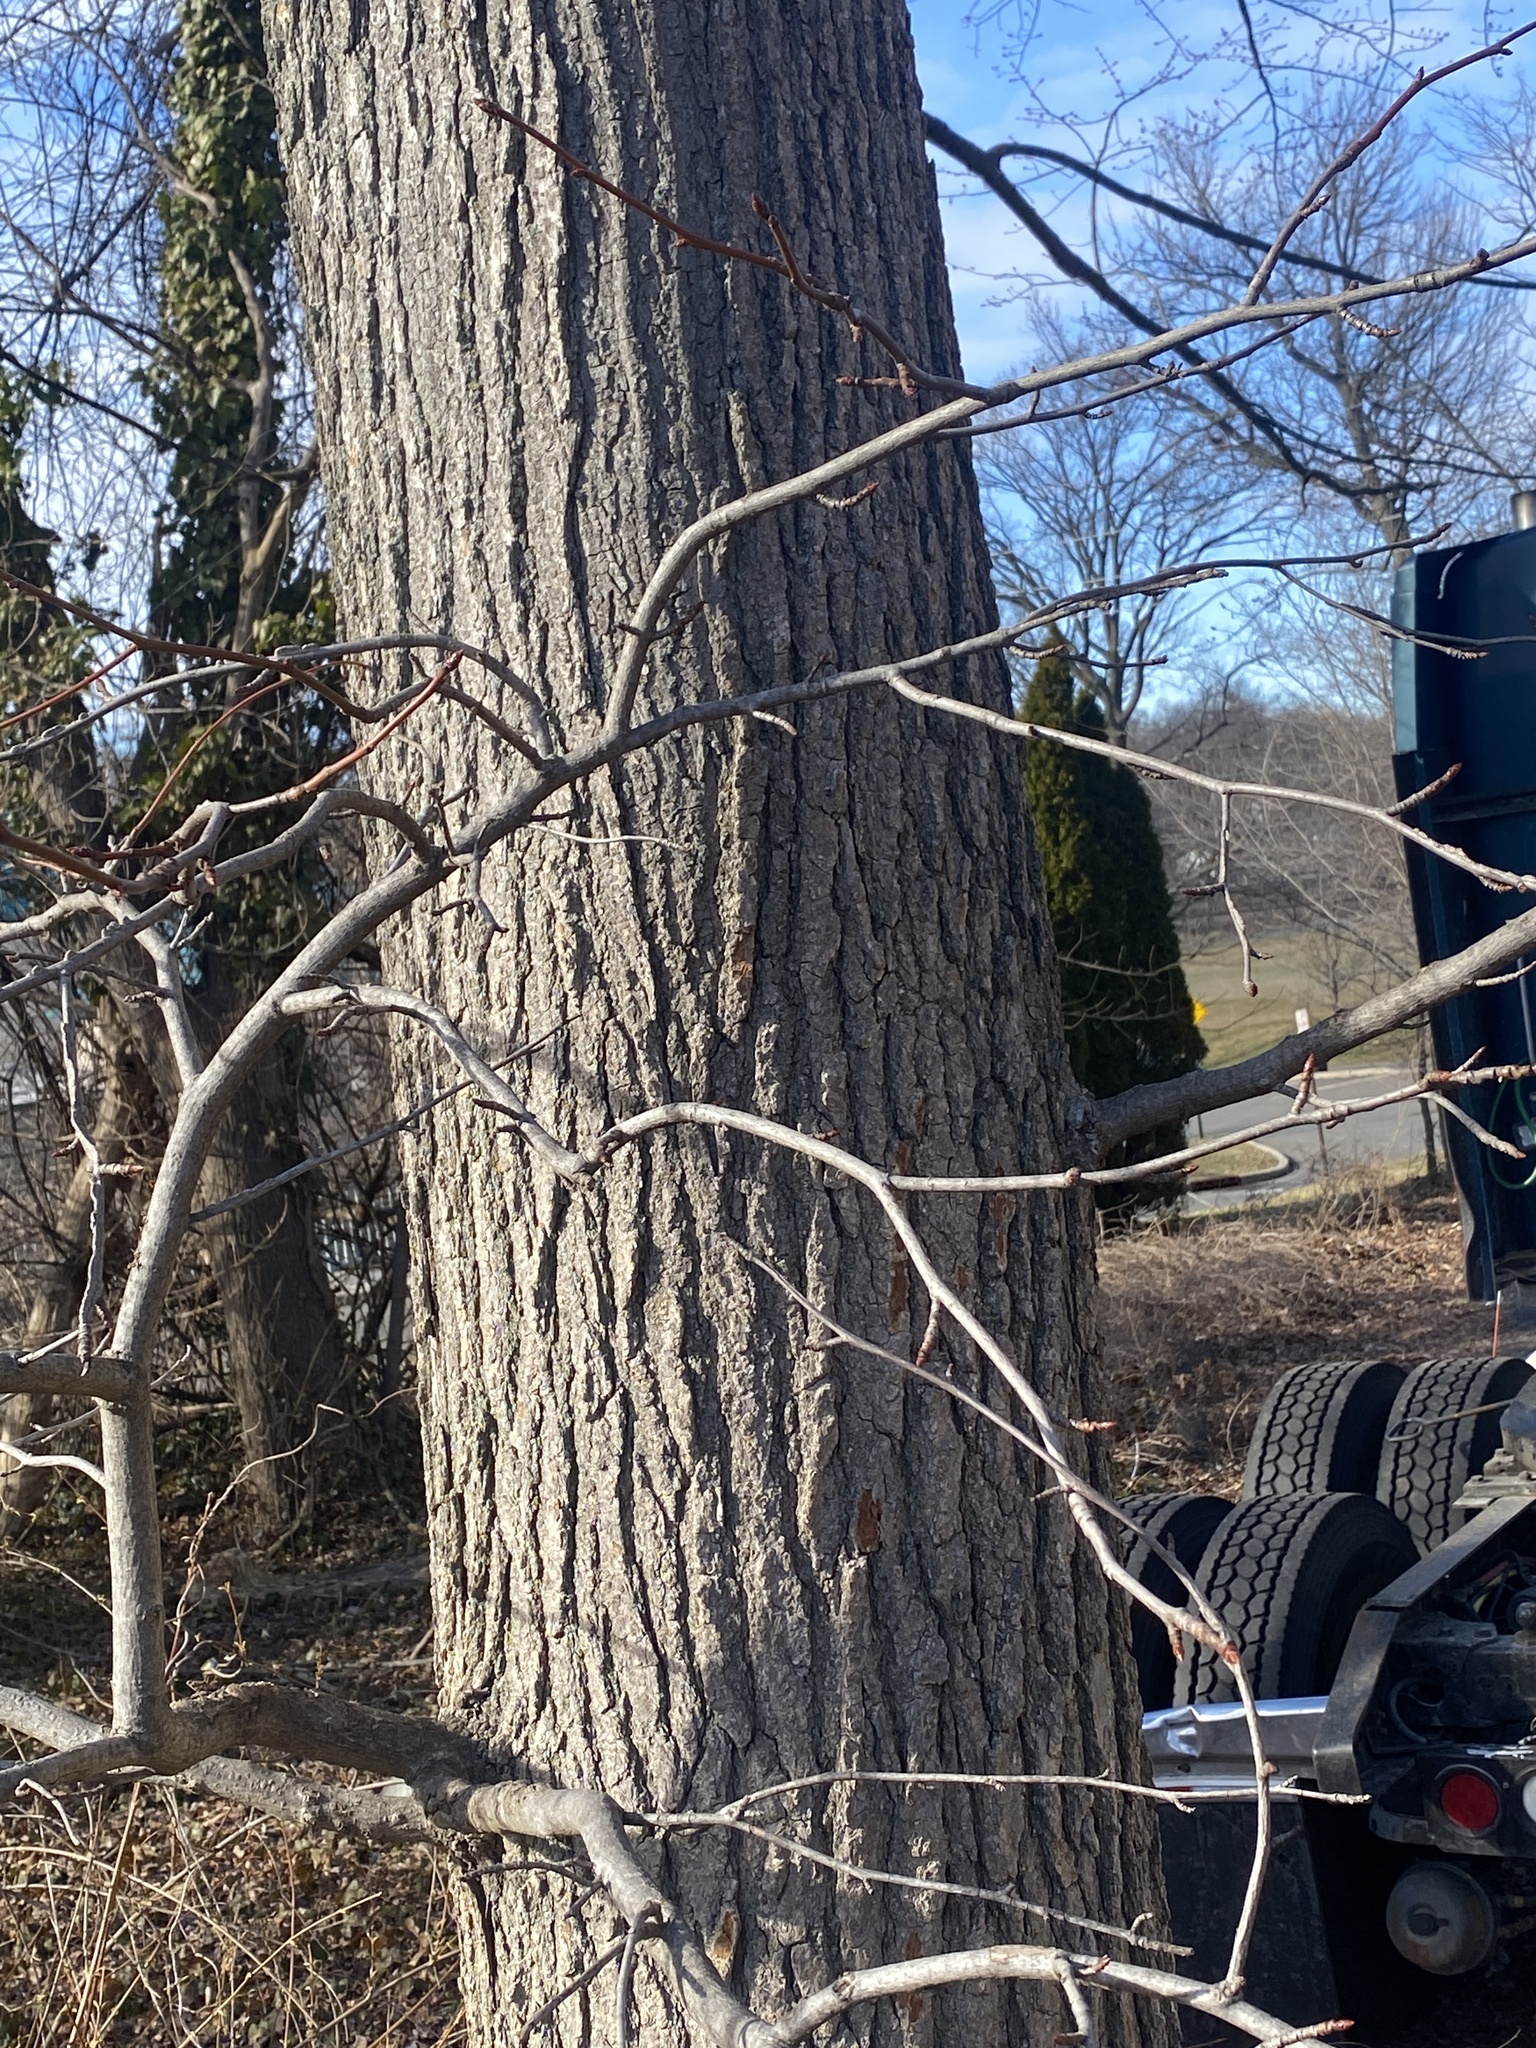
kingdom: Plantae
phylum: Tracheophyta
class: Magnoliopsida
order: Saxifragales
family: Altingiaceae
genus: Liquidambar
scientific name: Liquidambar styraciflua
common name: Sweet gum
